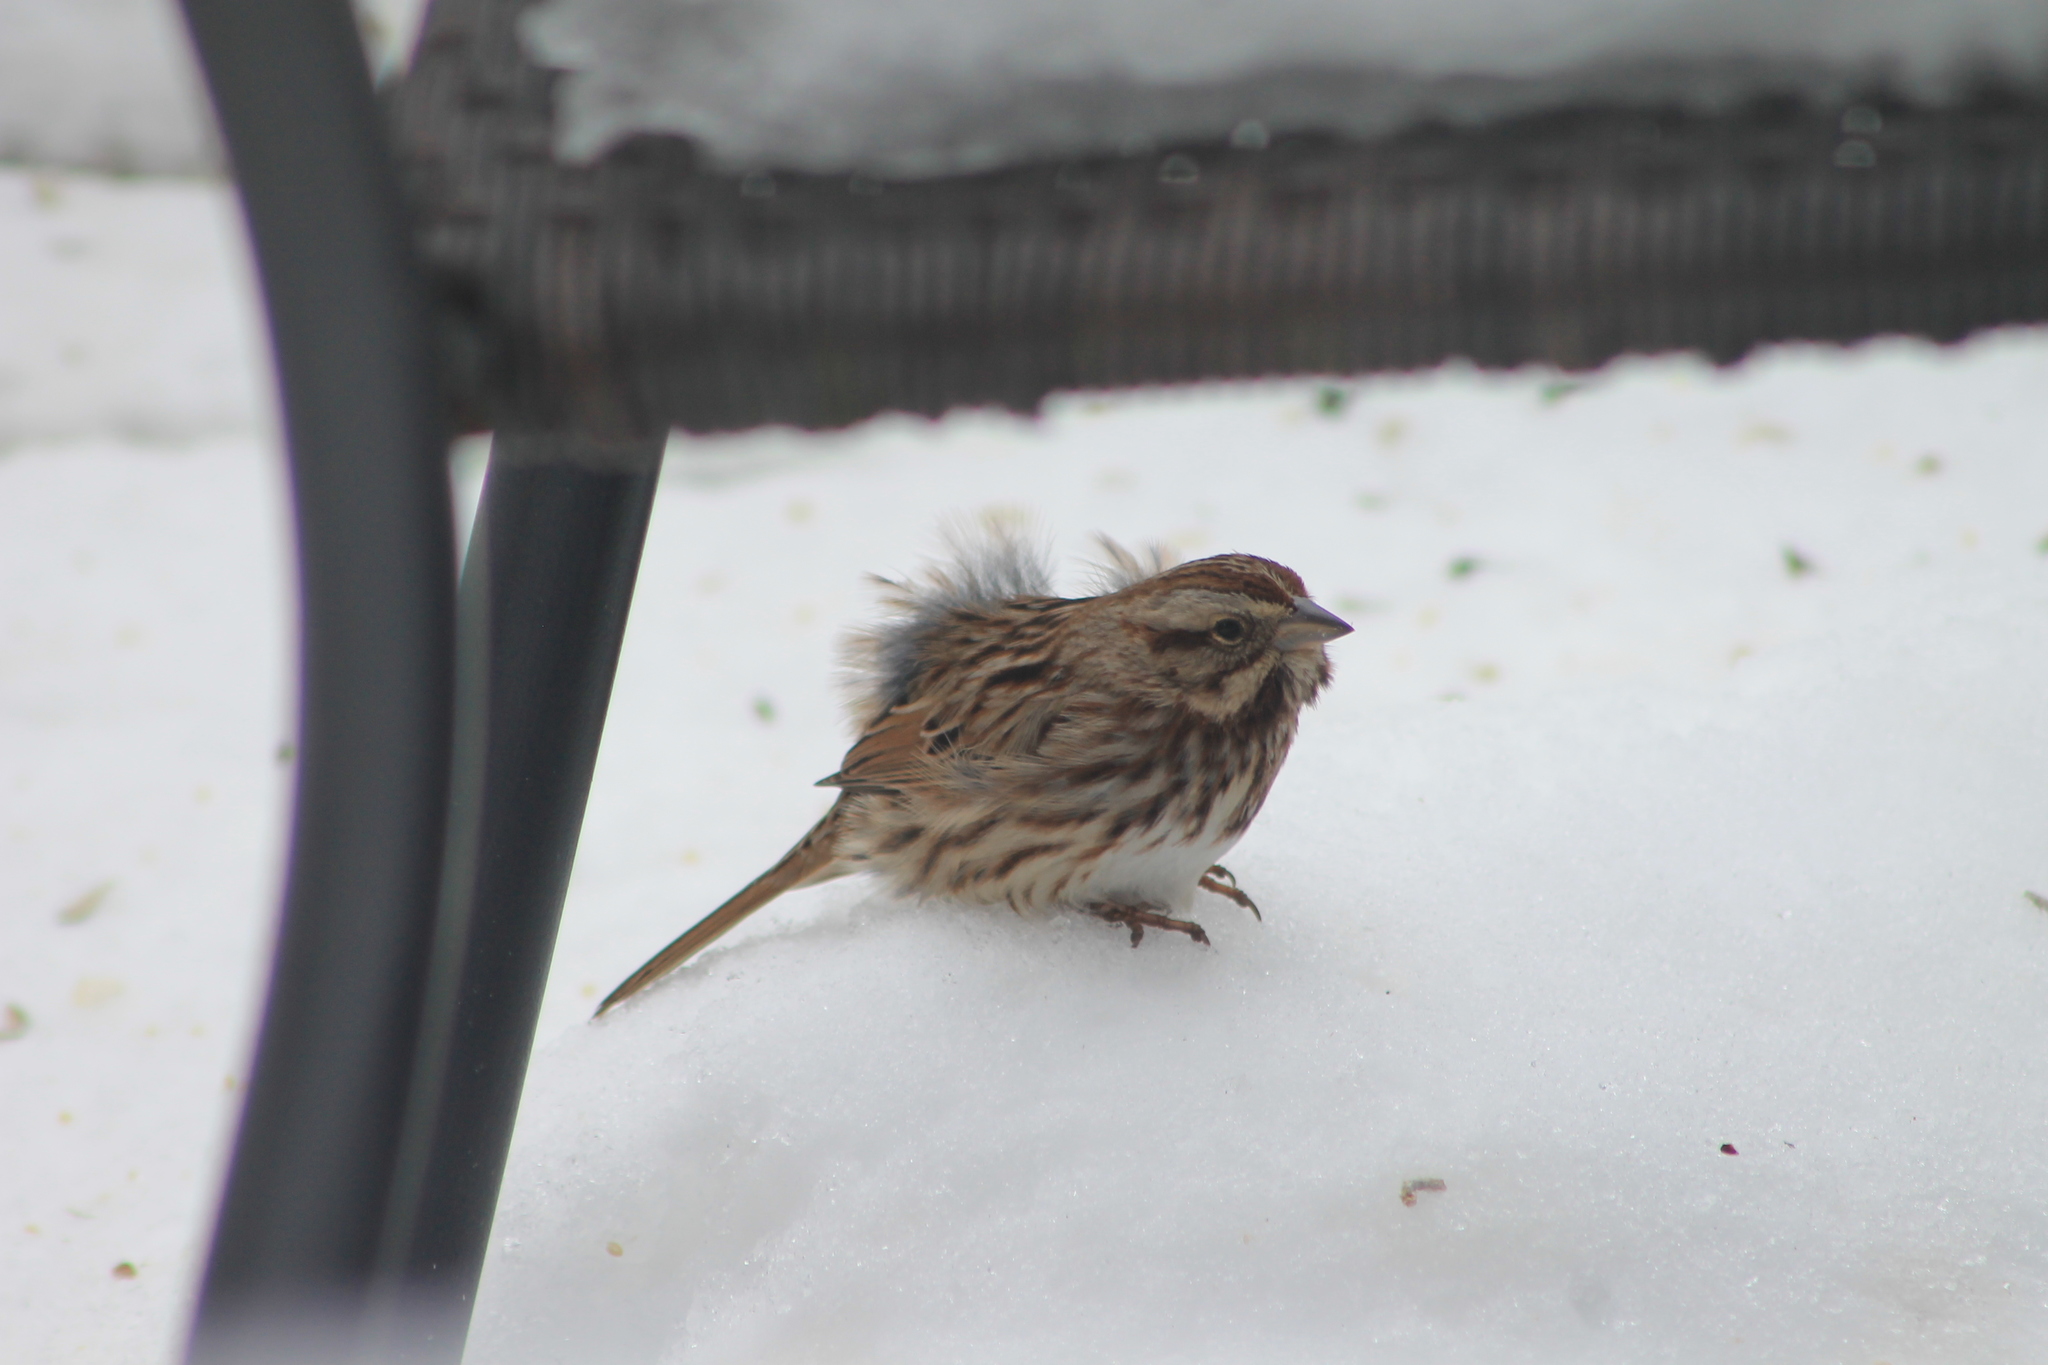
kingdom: Animalia
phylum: Chordata
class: Aves
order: Passeriformes
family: Passerellidae
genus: Melospiza
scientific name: Melospiza melodia
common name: Song sparrow
